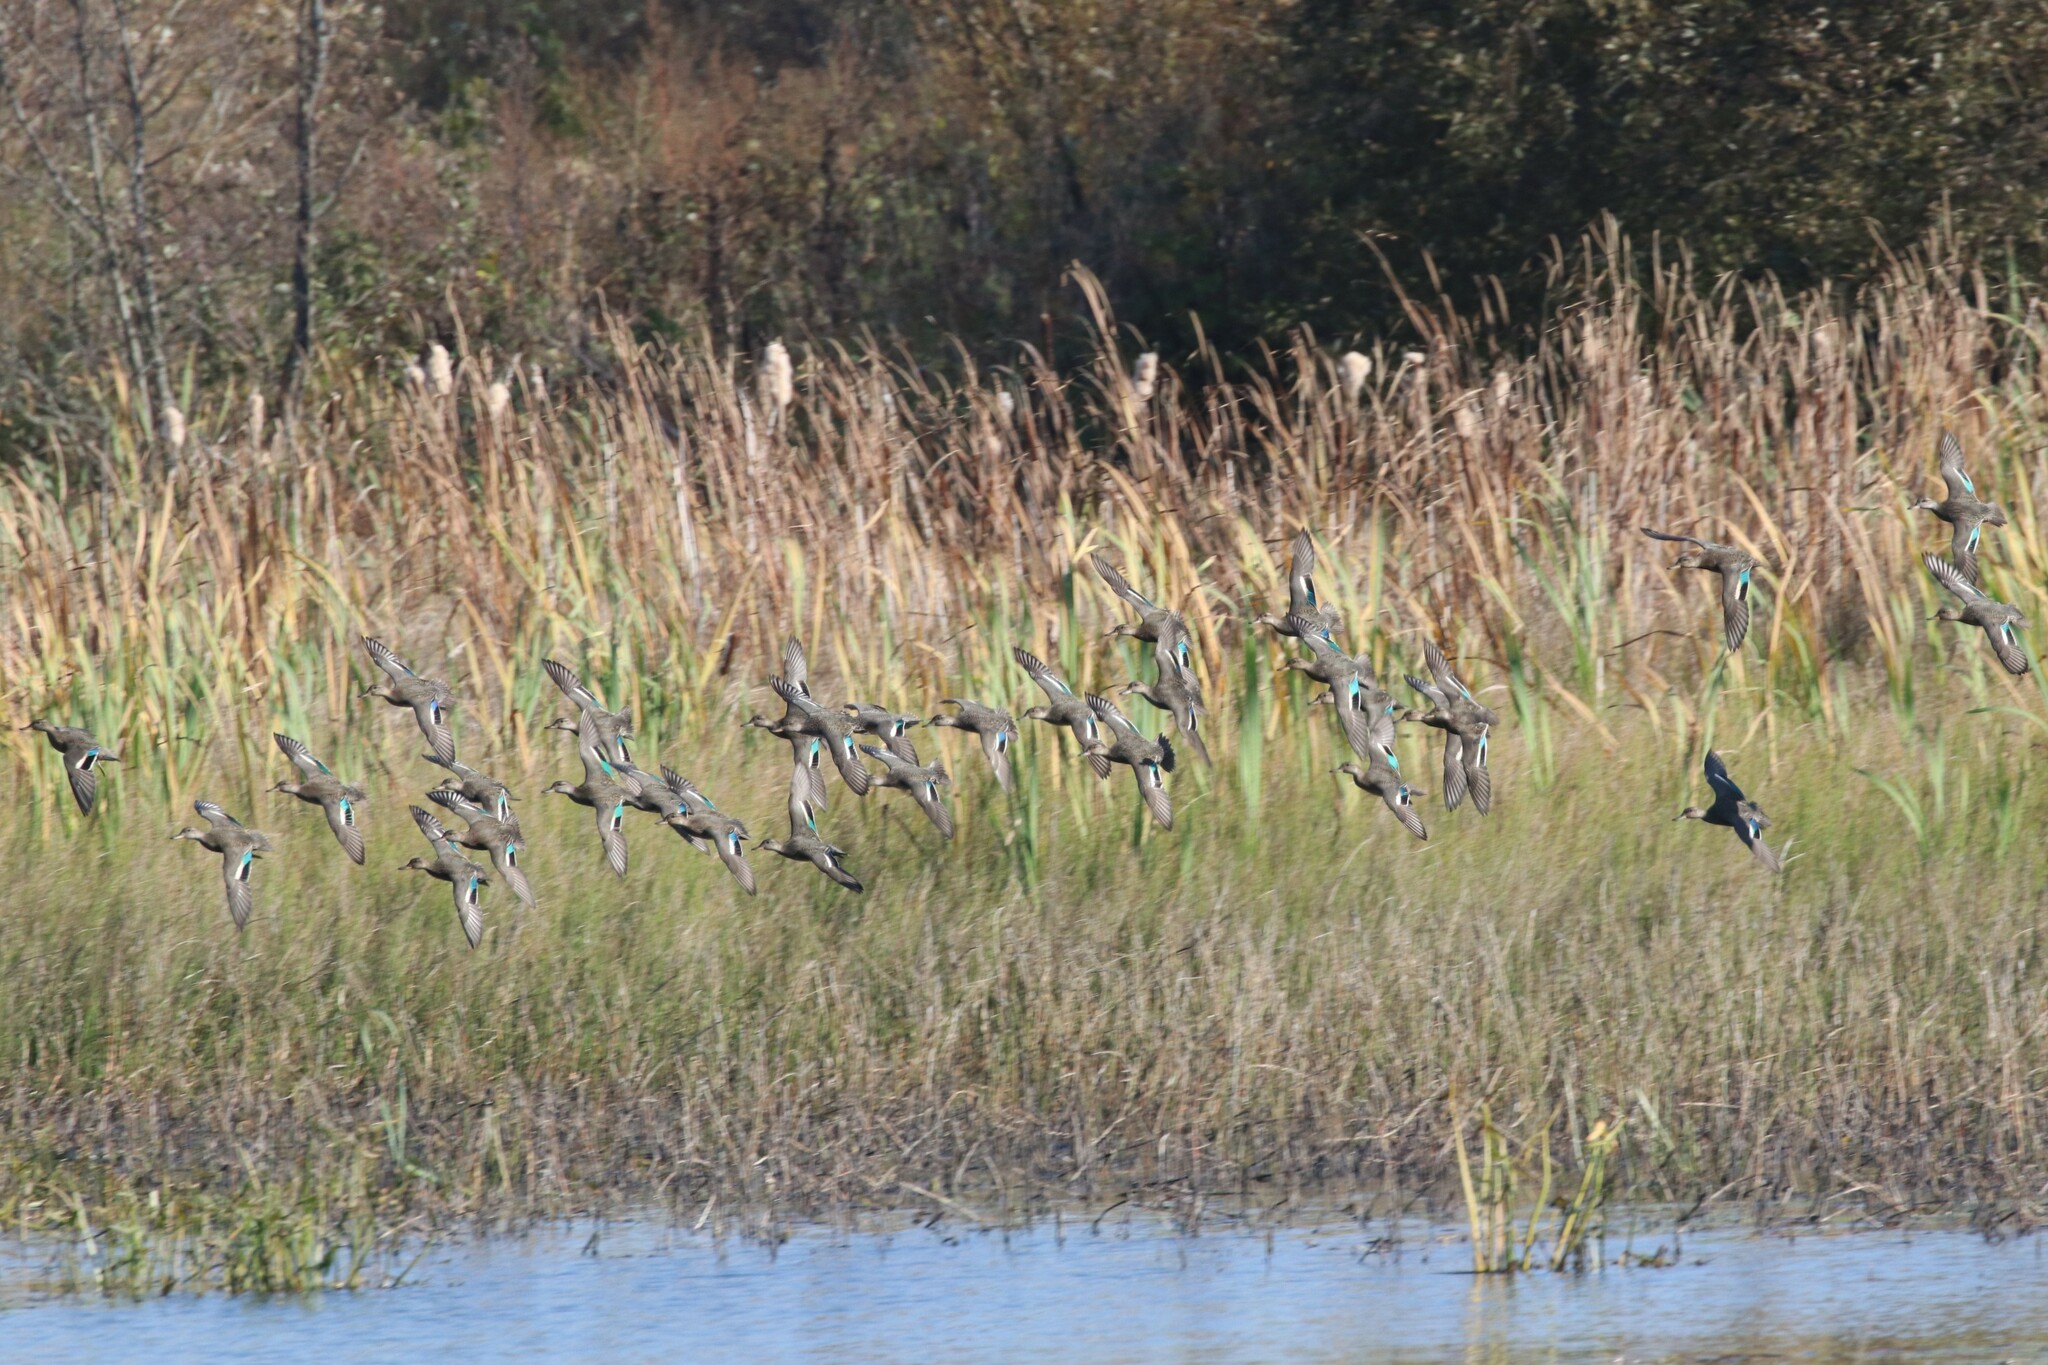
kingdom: Animalia
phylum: Chordata
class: Aves
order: Anseriformes
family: Anatidae
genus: Anas
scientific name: Anas crecca
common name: Eurasian teal
